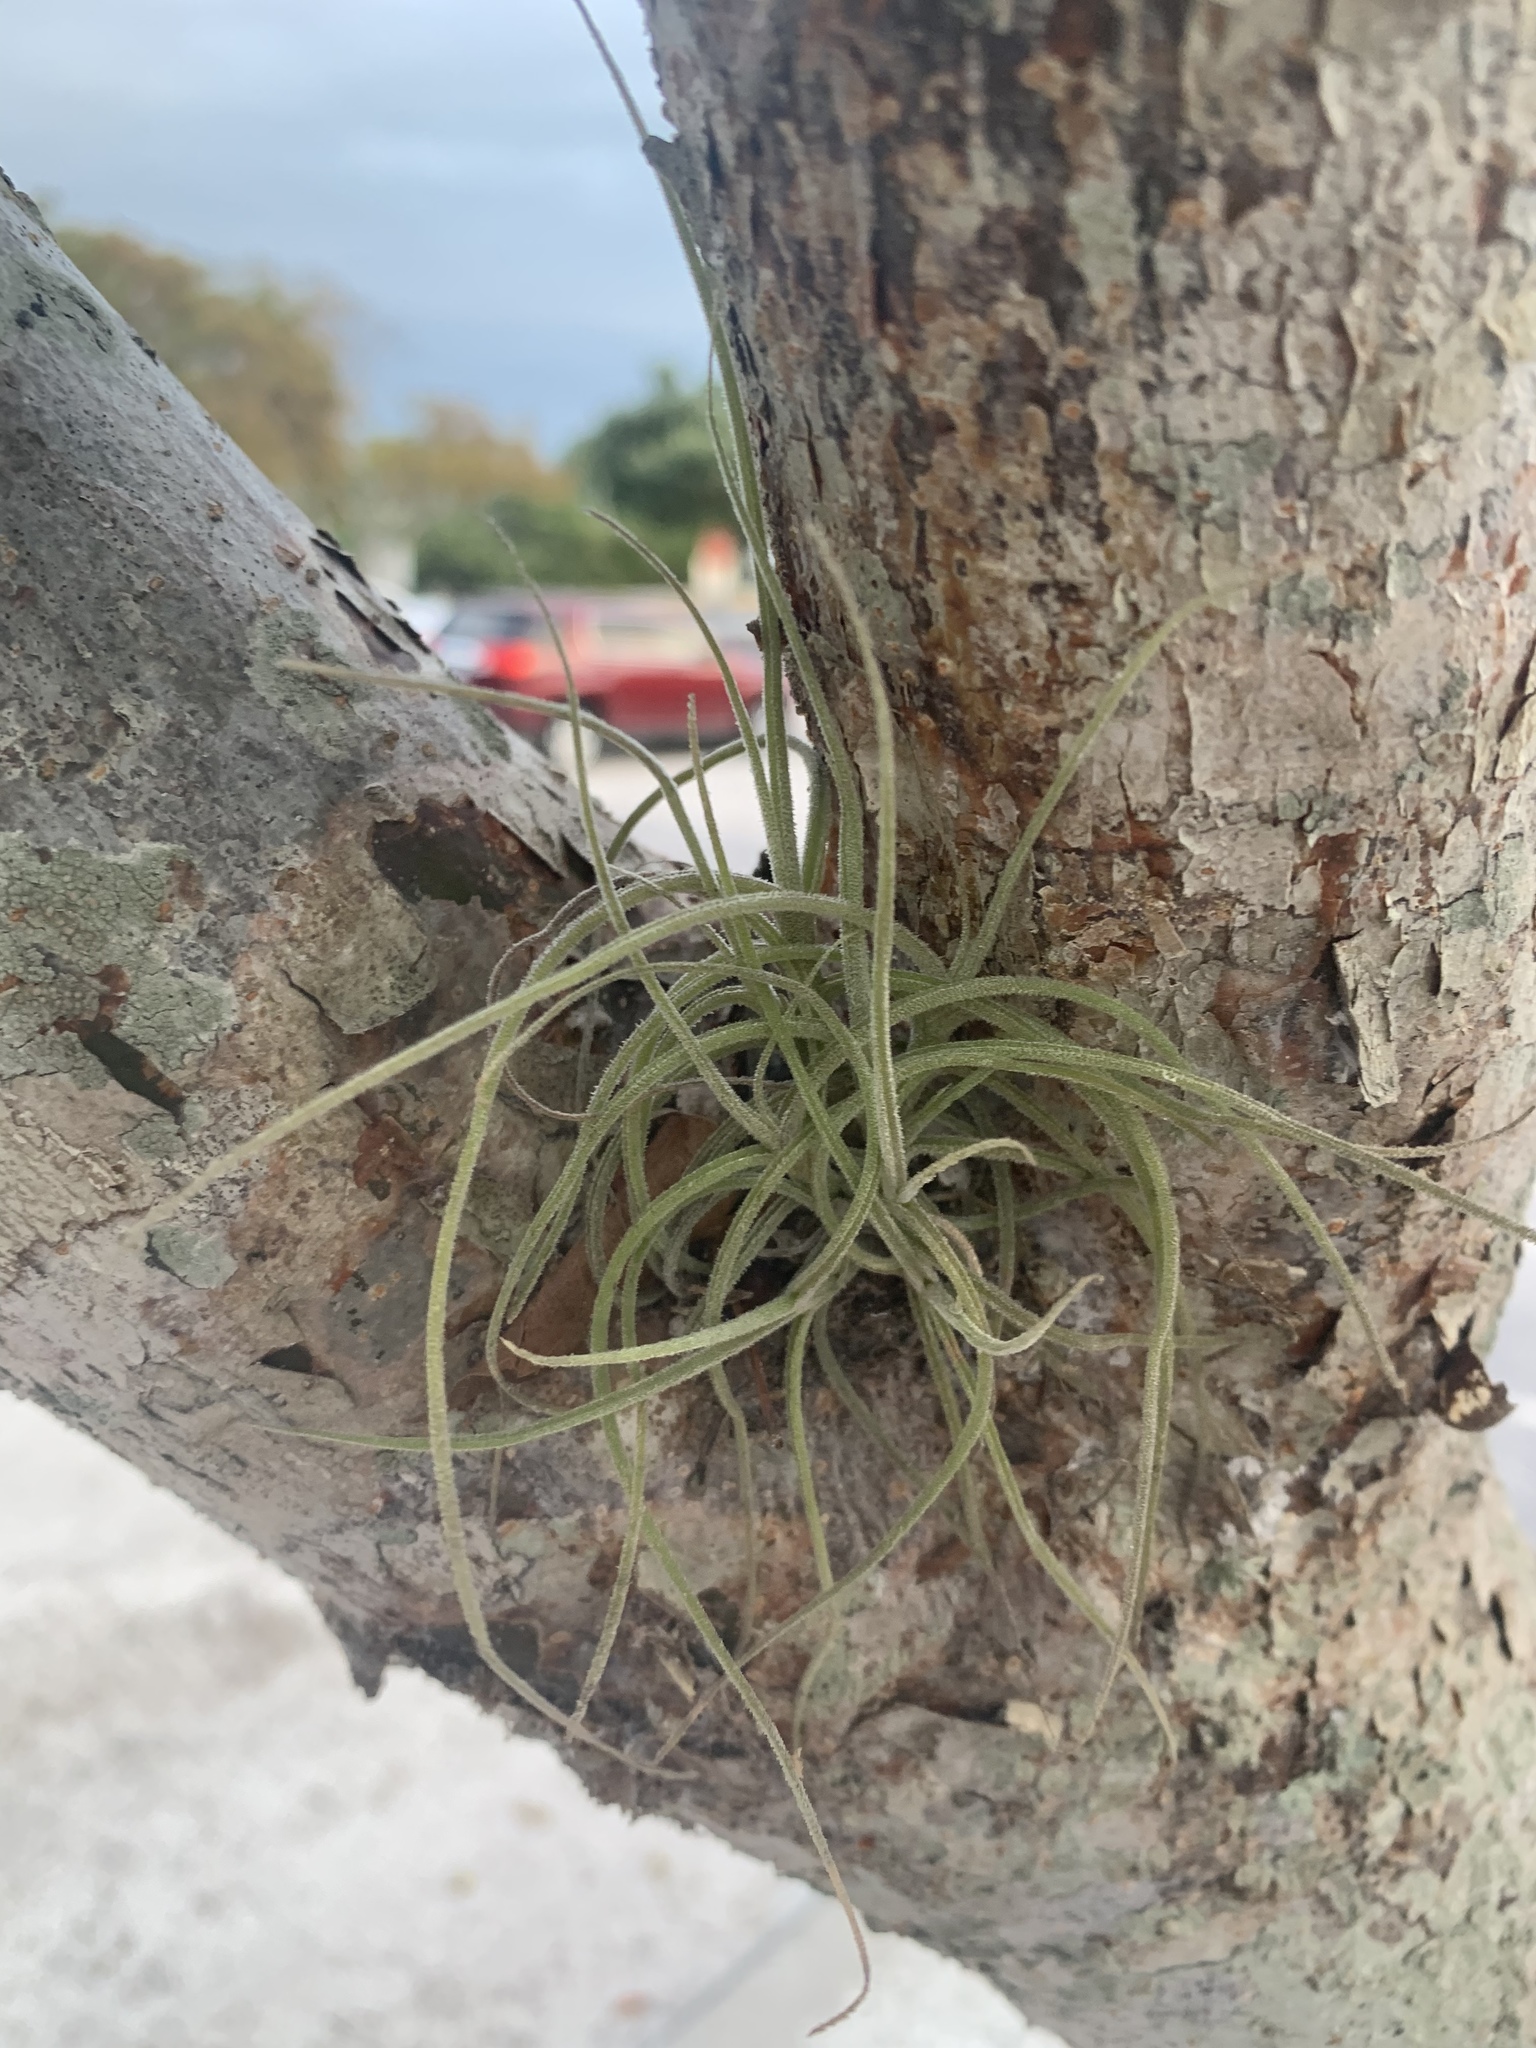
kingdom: Plantae
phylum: Tracheophyta
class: Liliopsida
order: Poales
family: Bromeliaceae
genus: Tillandsia
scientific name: Tillandsia recurvata
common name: Small ballmoss
